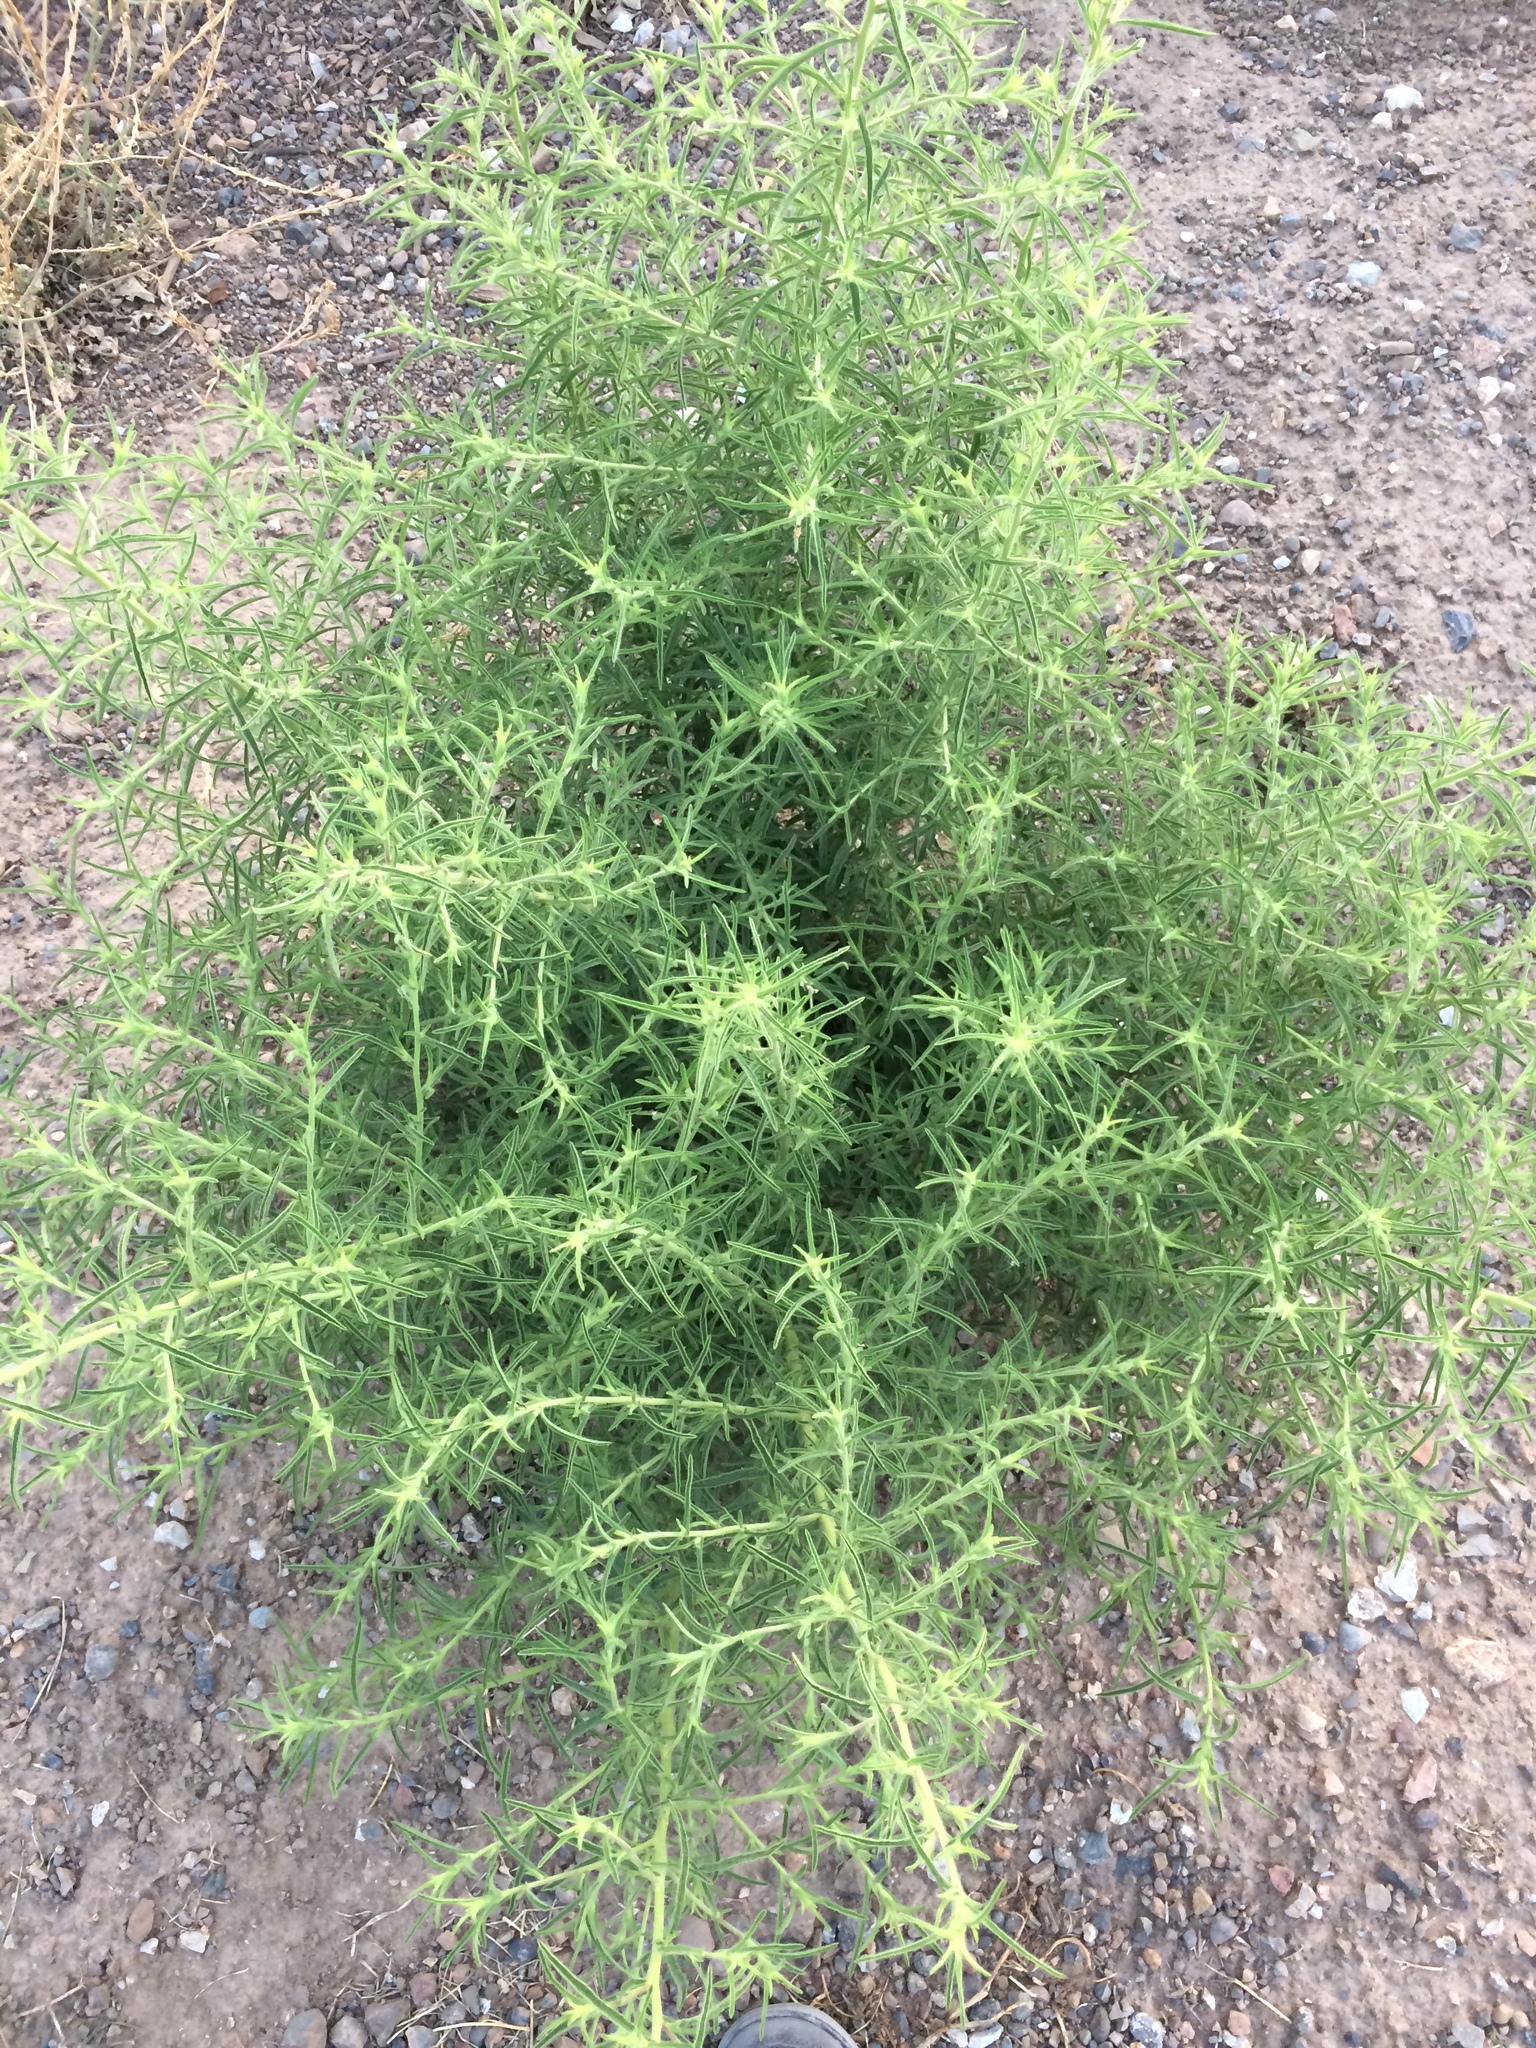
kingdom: Plantae
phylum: Tracheophyta
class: Magnoliopsida
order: Asterales
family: Asteraceae
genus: Dittrichia
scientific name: Dittrichia graveolens
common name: Stinking fleabane
